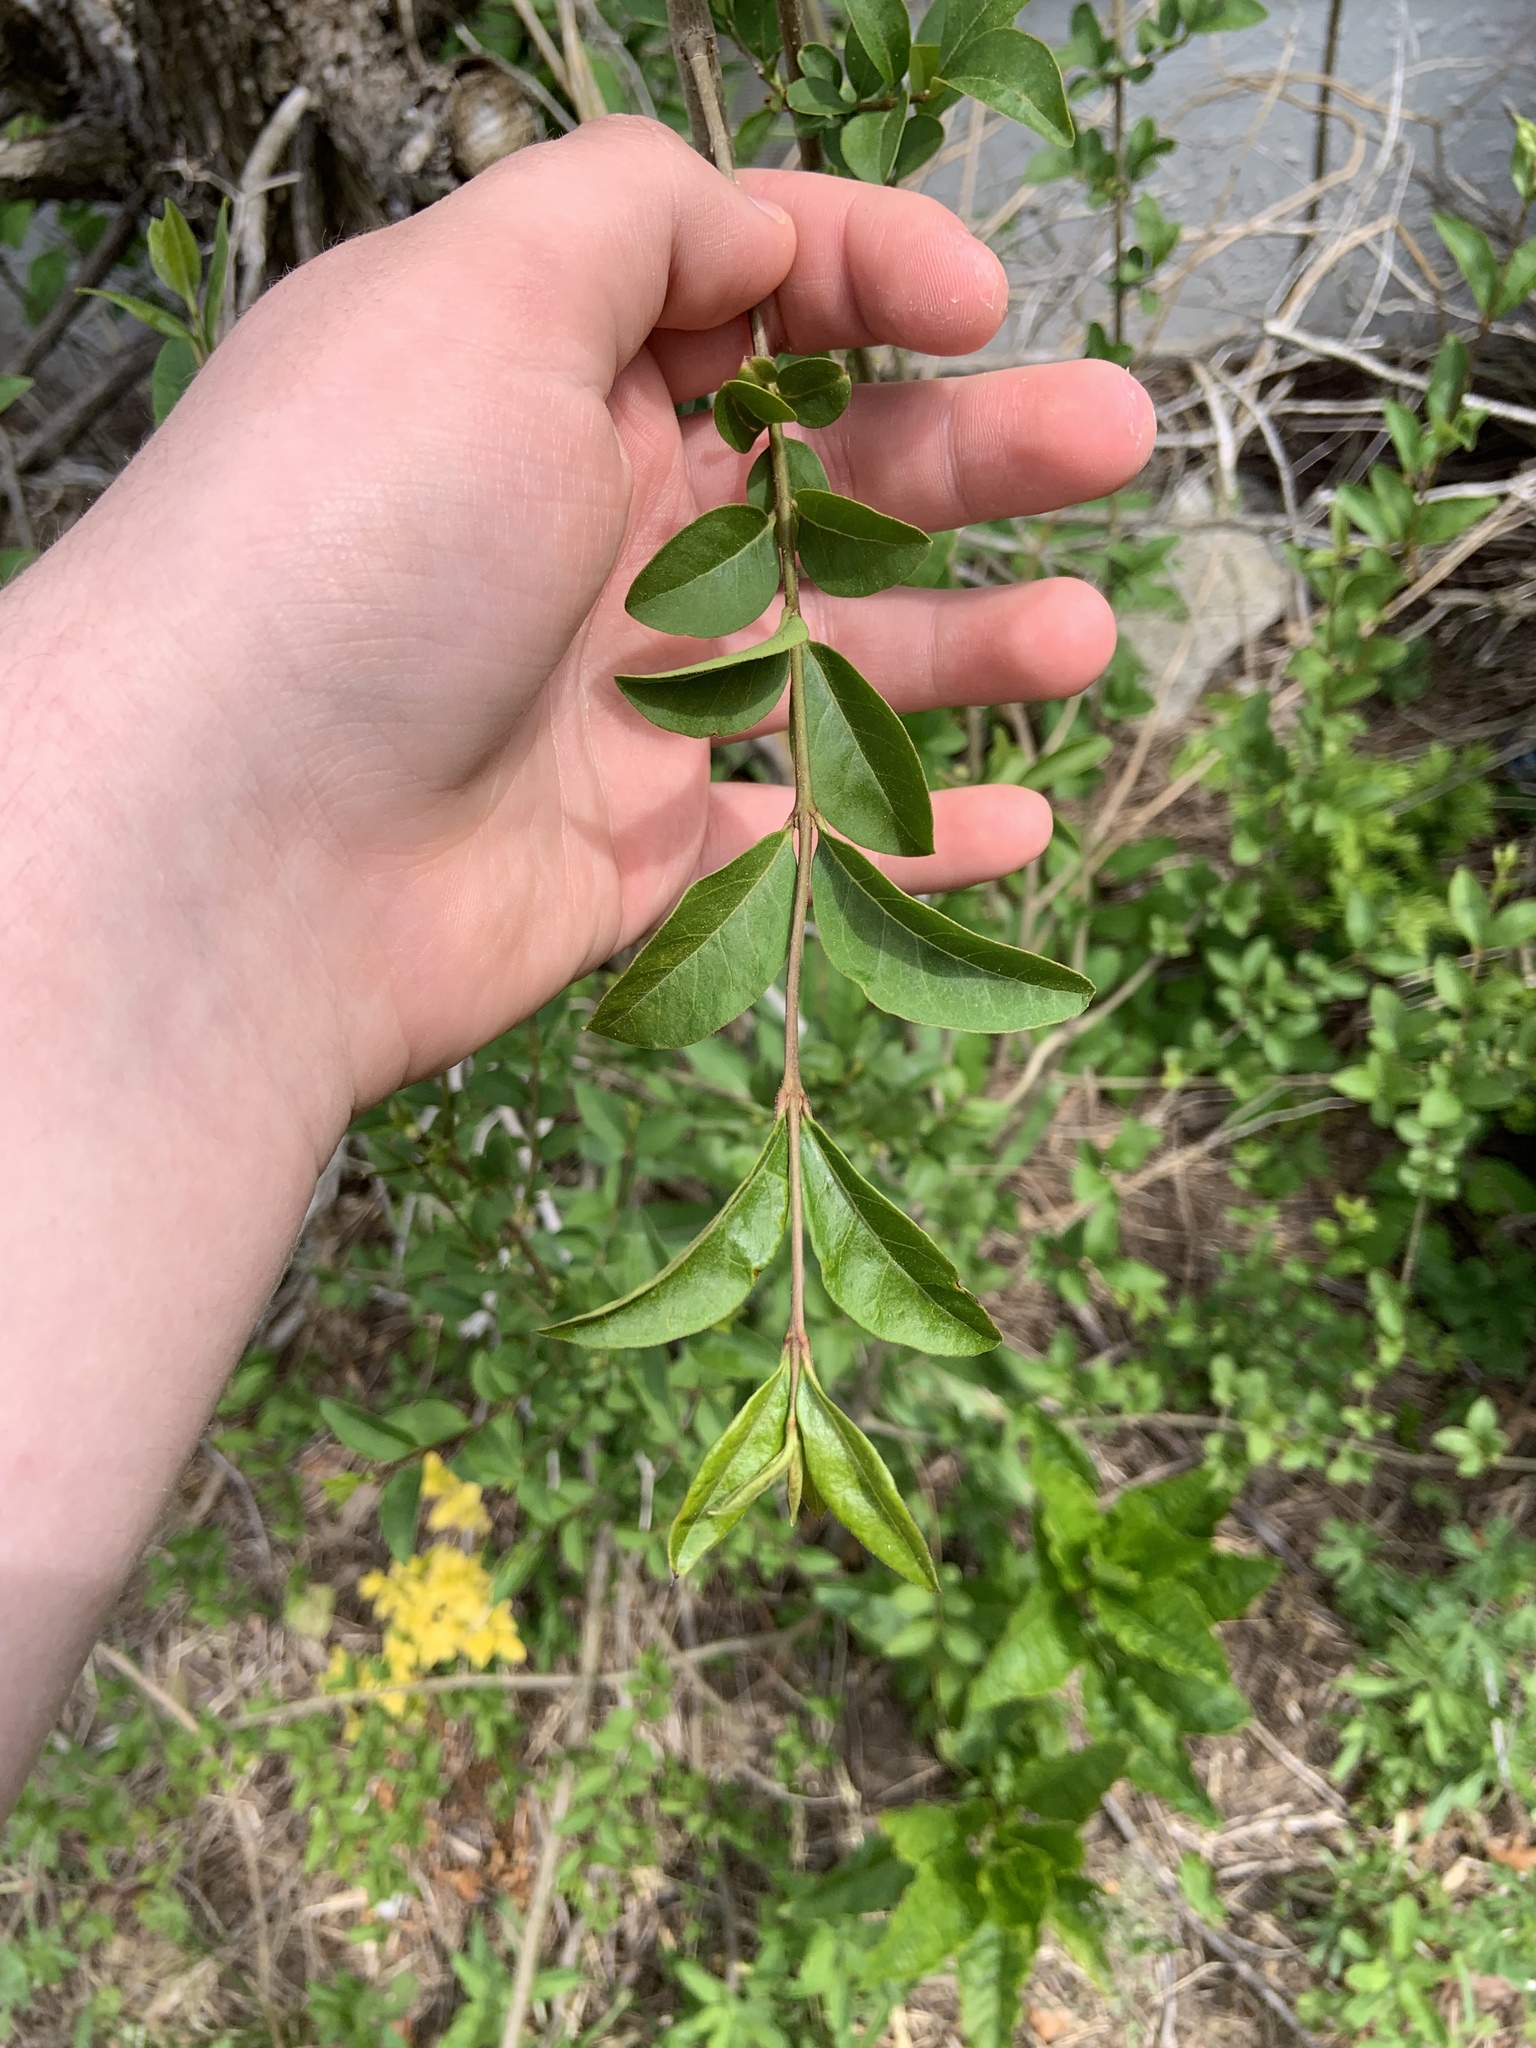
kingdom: Plantae
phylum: Tracheophyta
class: Magnoliopsida
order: Lamiales
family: Oleaceae
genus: Ligustrum
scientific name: Ligustrum ovalifolium
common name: California privet
